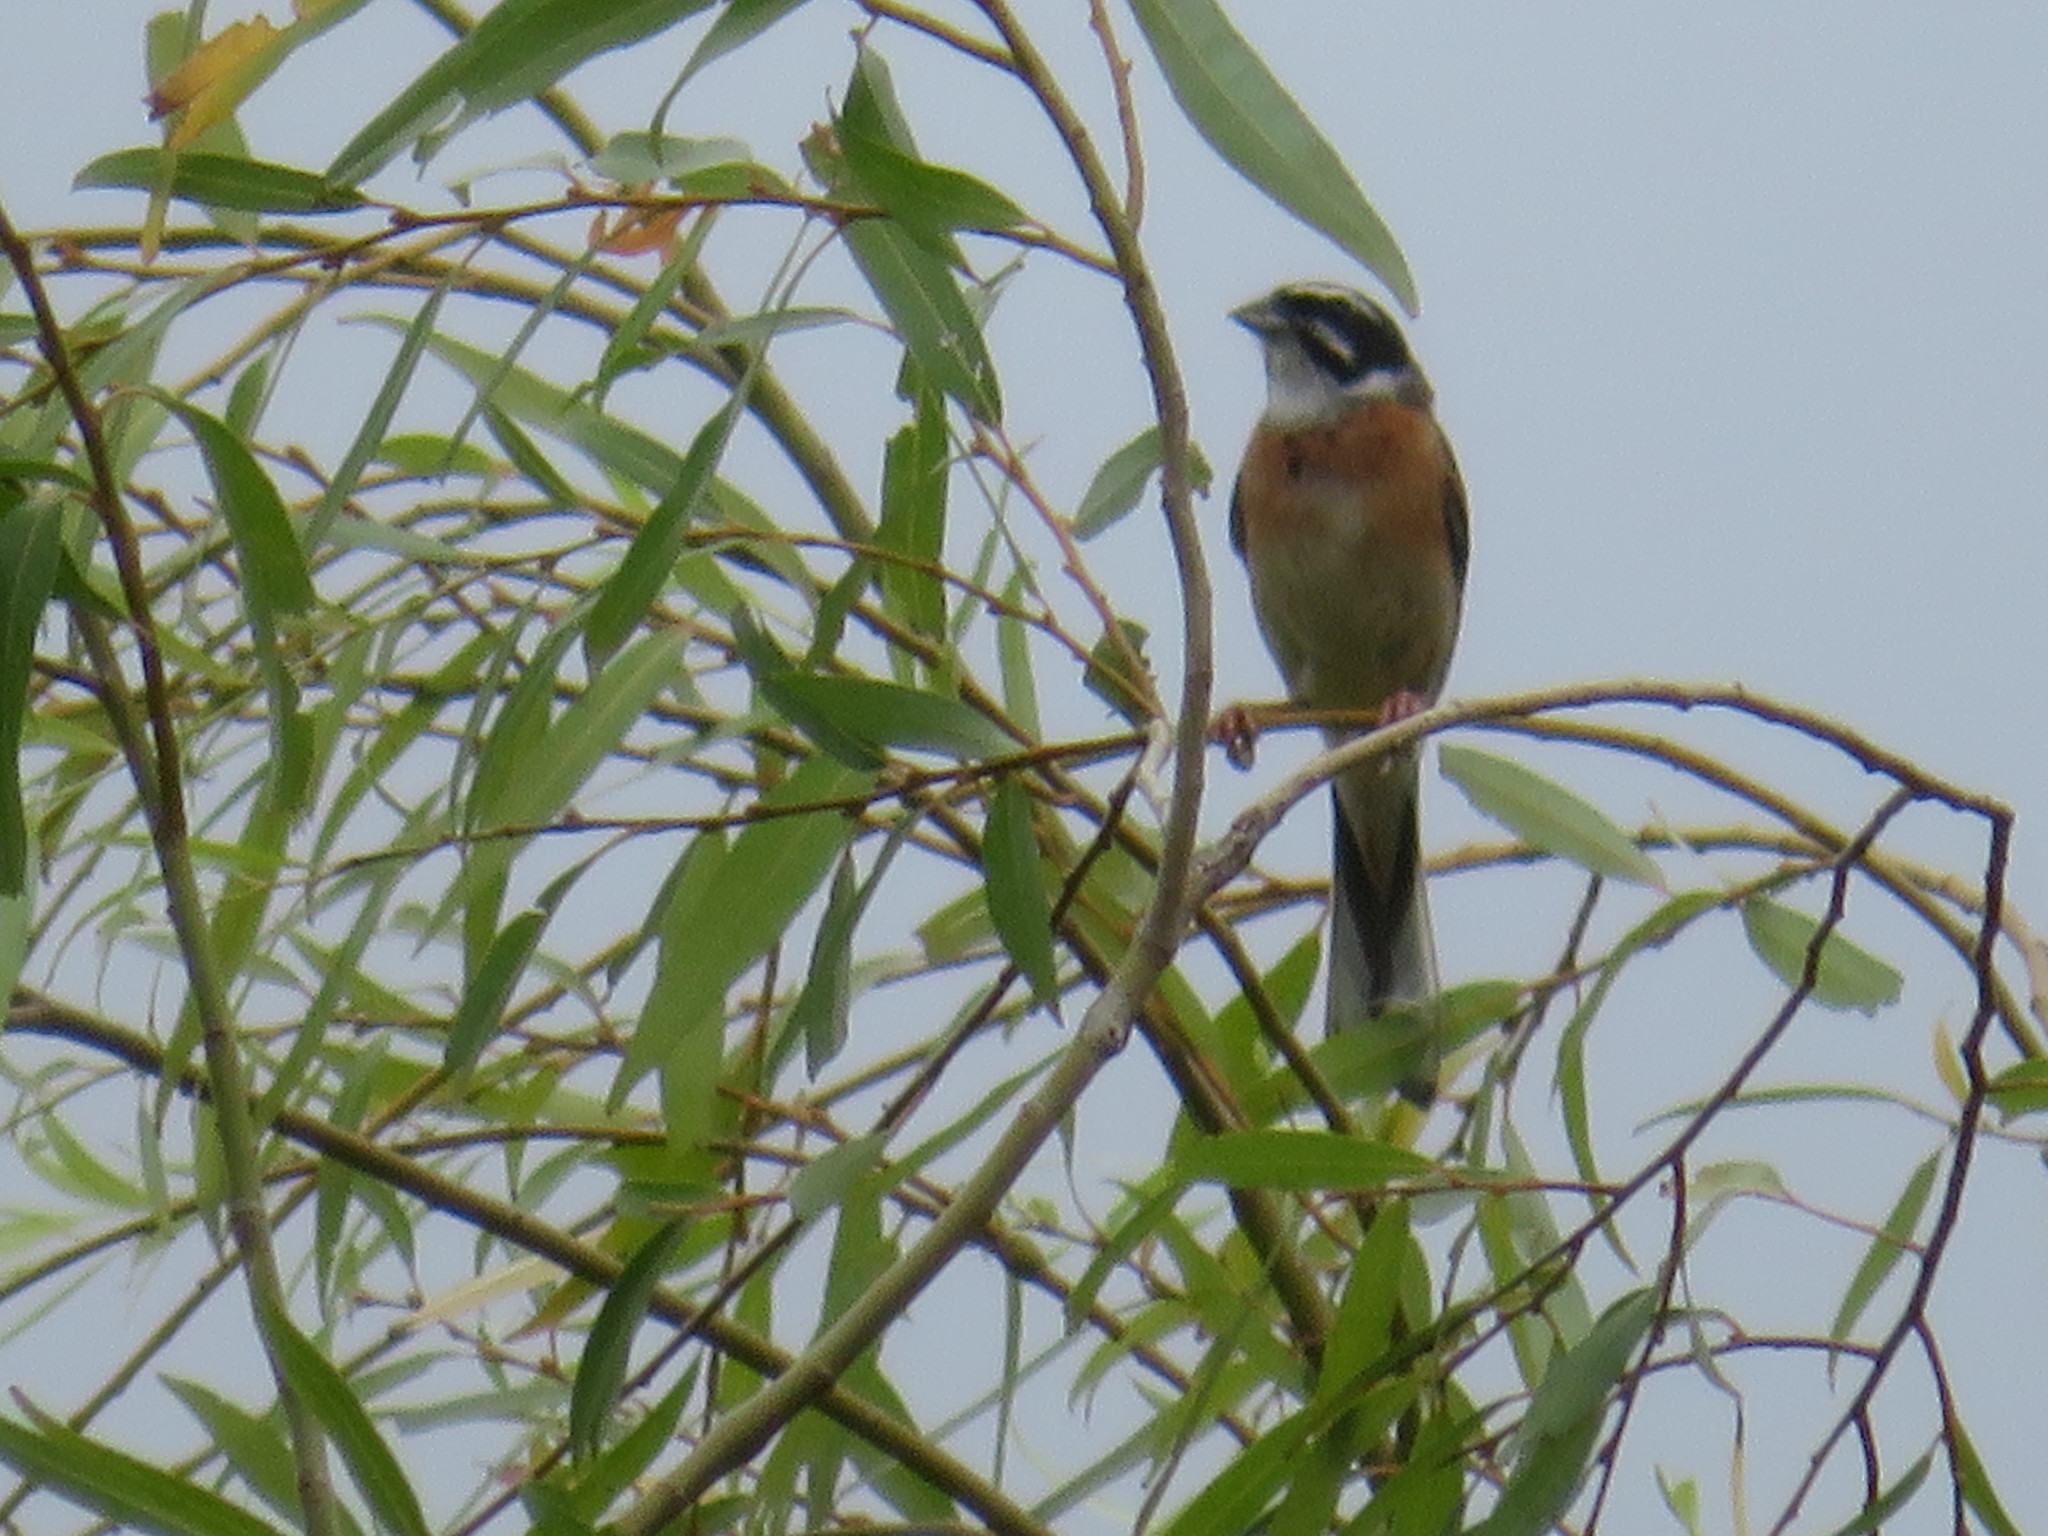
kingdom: Animalia
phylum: Chordata
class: Aves
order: Passeriformes
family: Emberizidae
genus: Emberiza
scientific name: Emberiza cioides
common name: Meadow bunting
